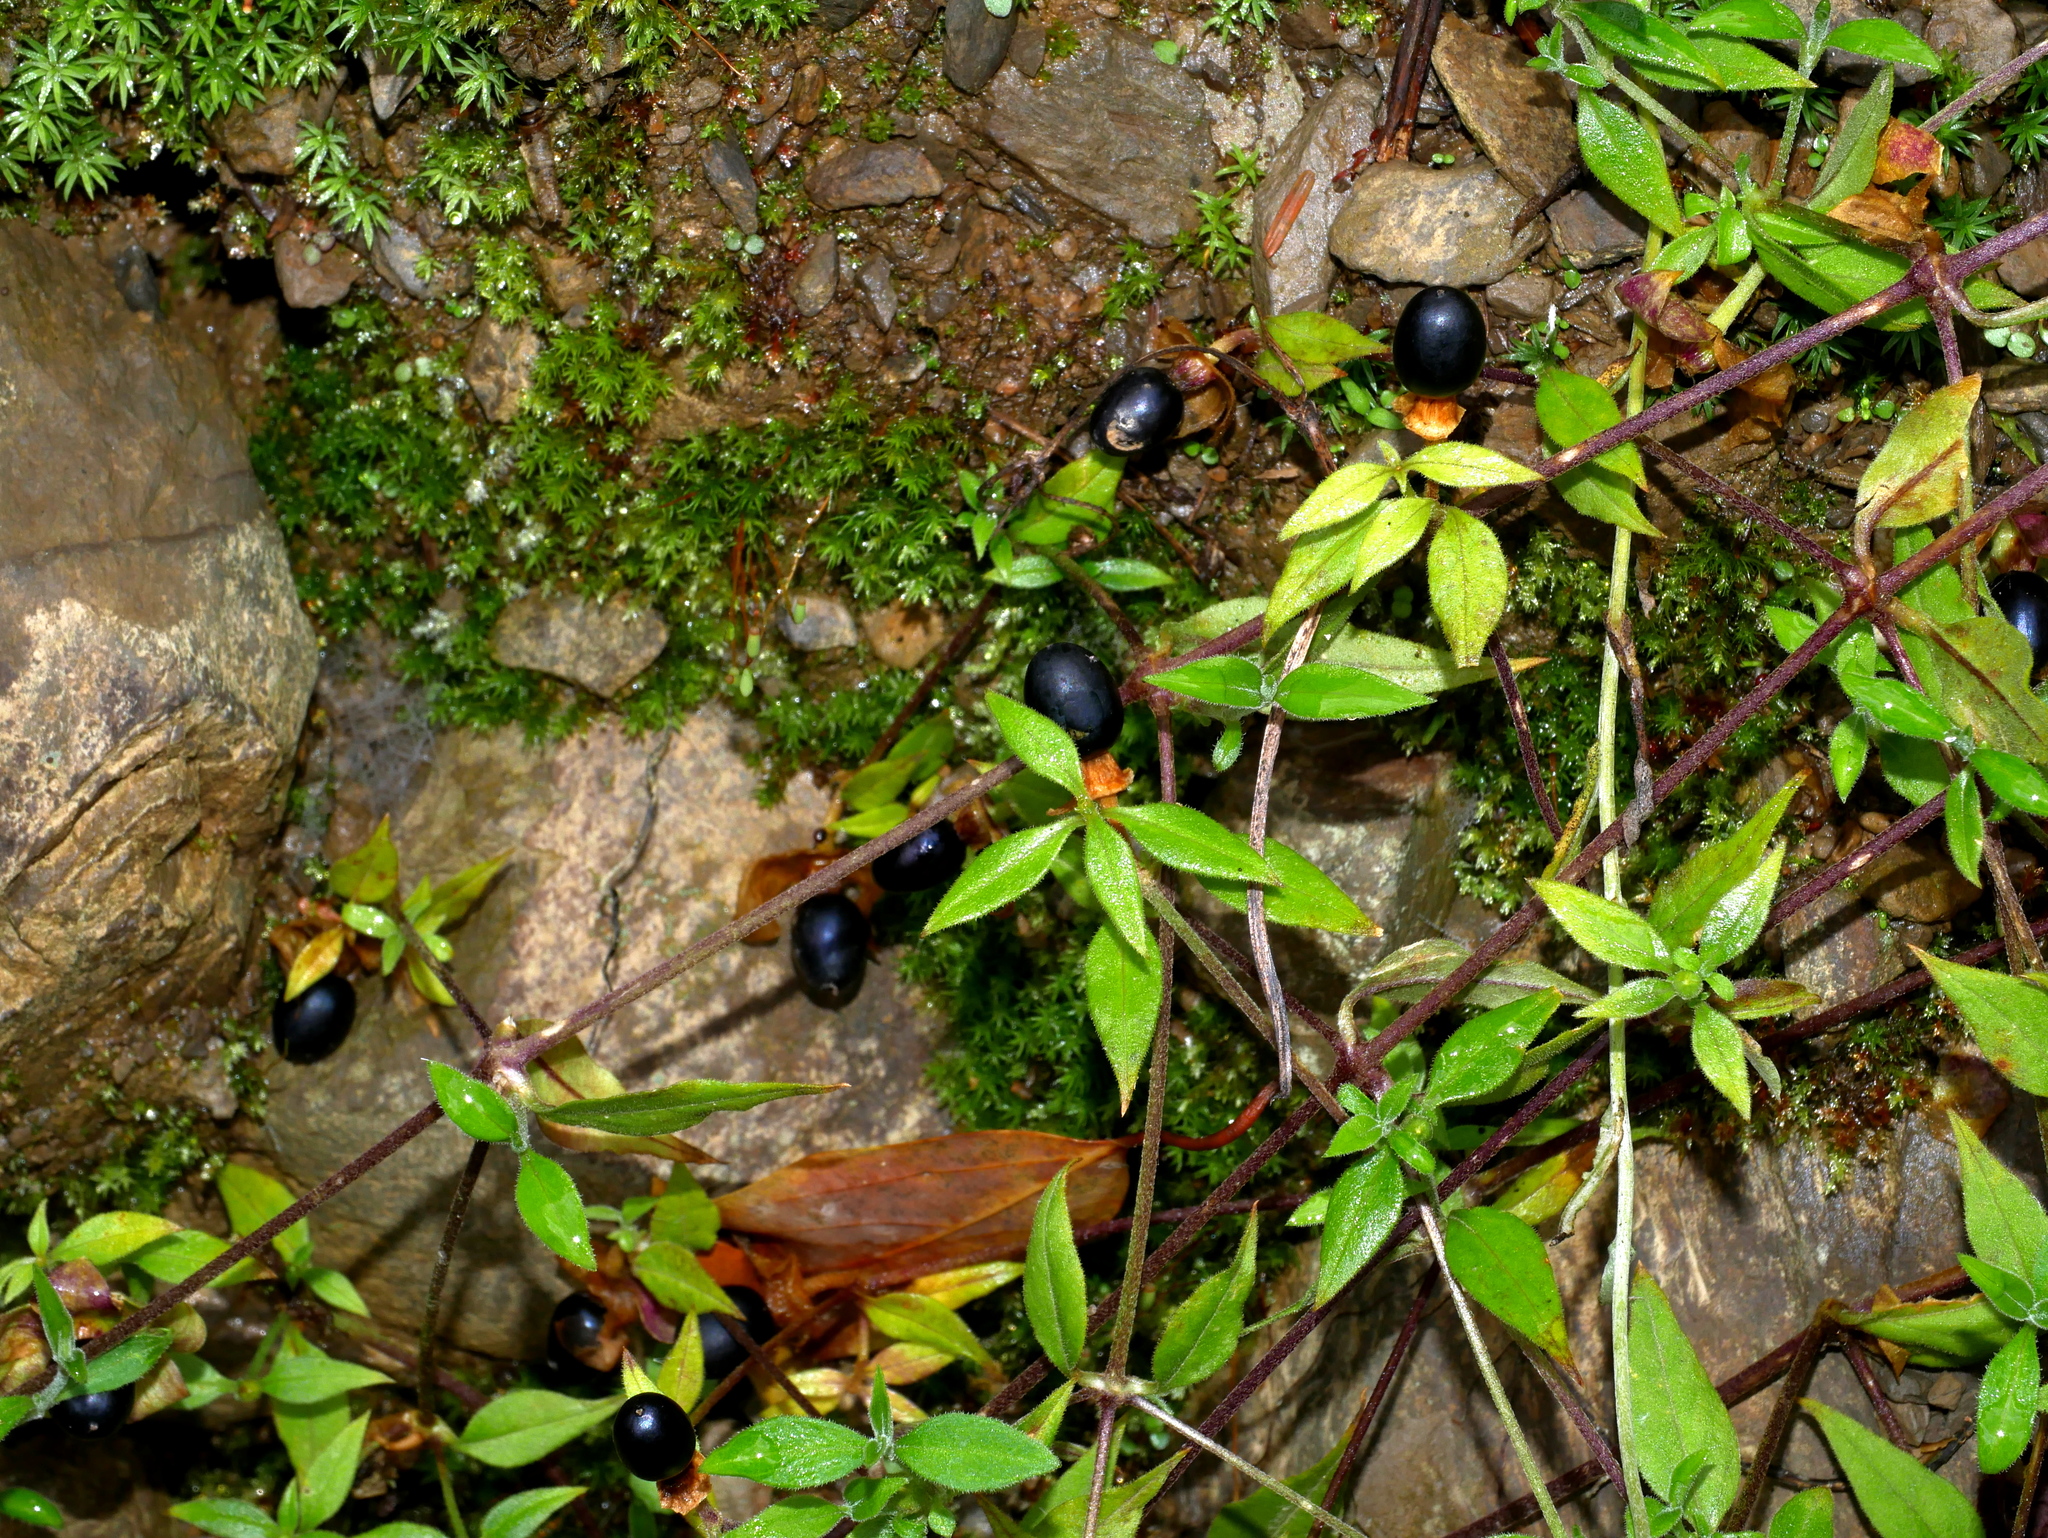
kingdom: Plantae
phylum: Tracheophyta
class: Magnoliopsida
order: Caryophyllales
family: Caryophyllaceae
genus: Silene
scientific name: Silene baccifera
